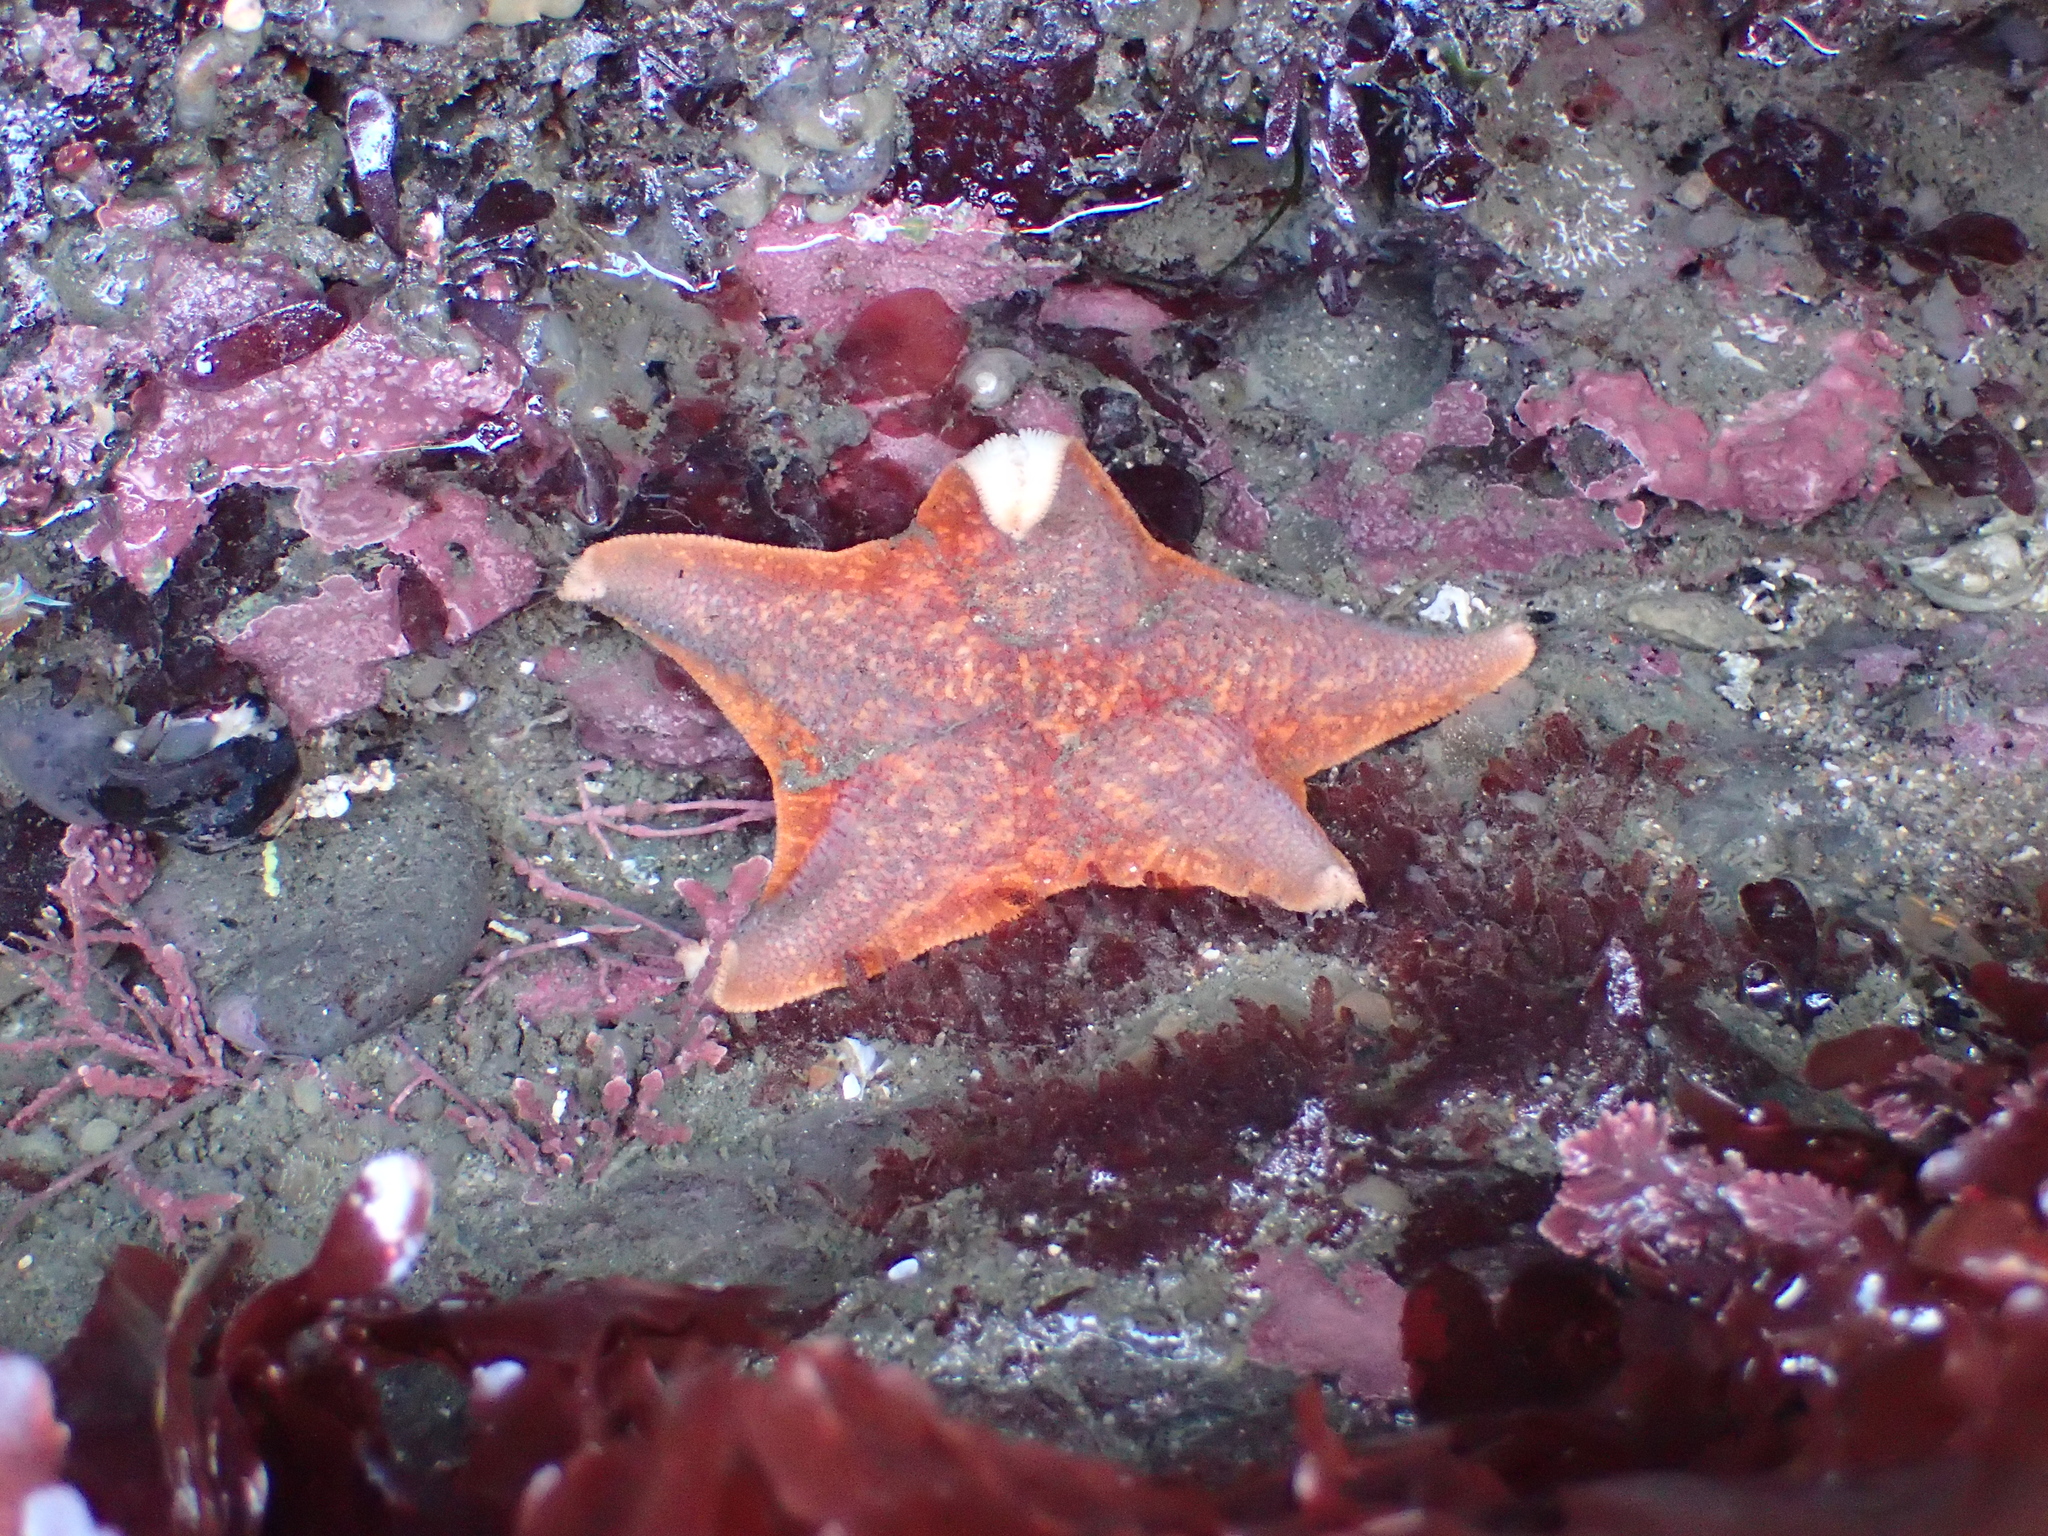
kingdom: Animalia
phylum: Echinodermata
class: Asteroidea
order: Valvatida
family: Asterinidae
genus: Patiria
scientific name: Patiria miniata
